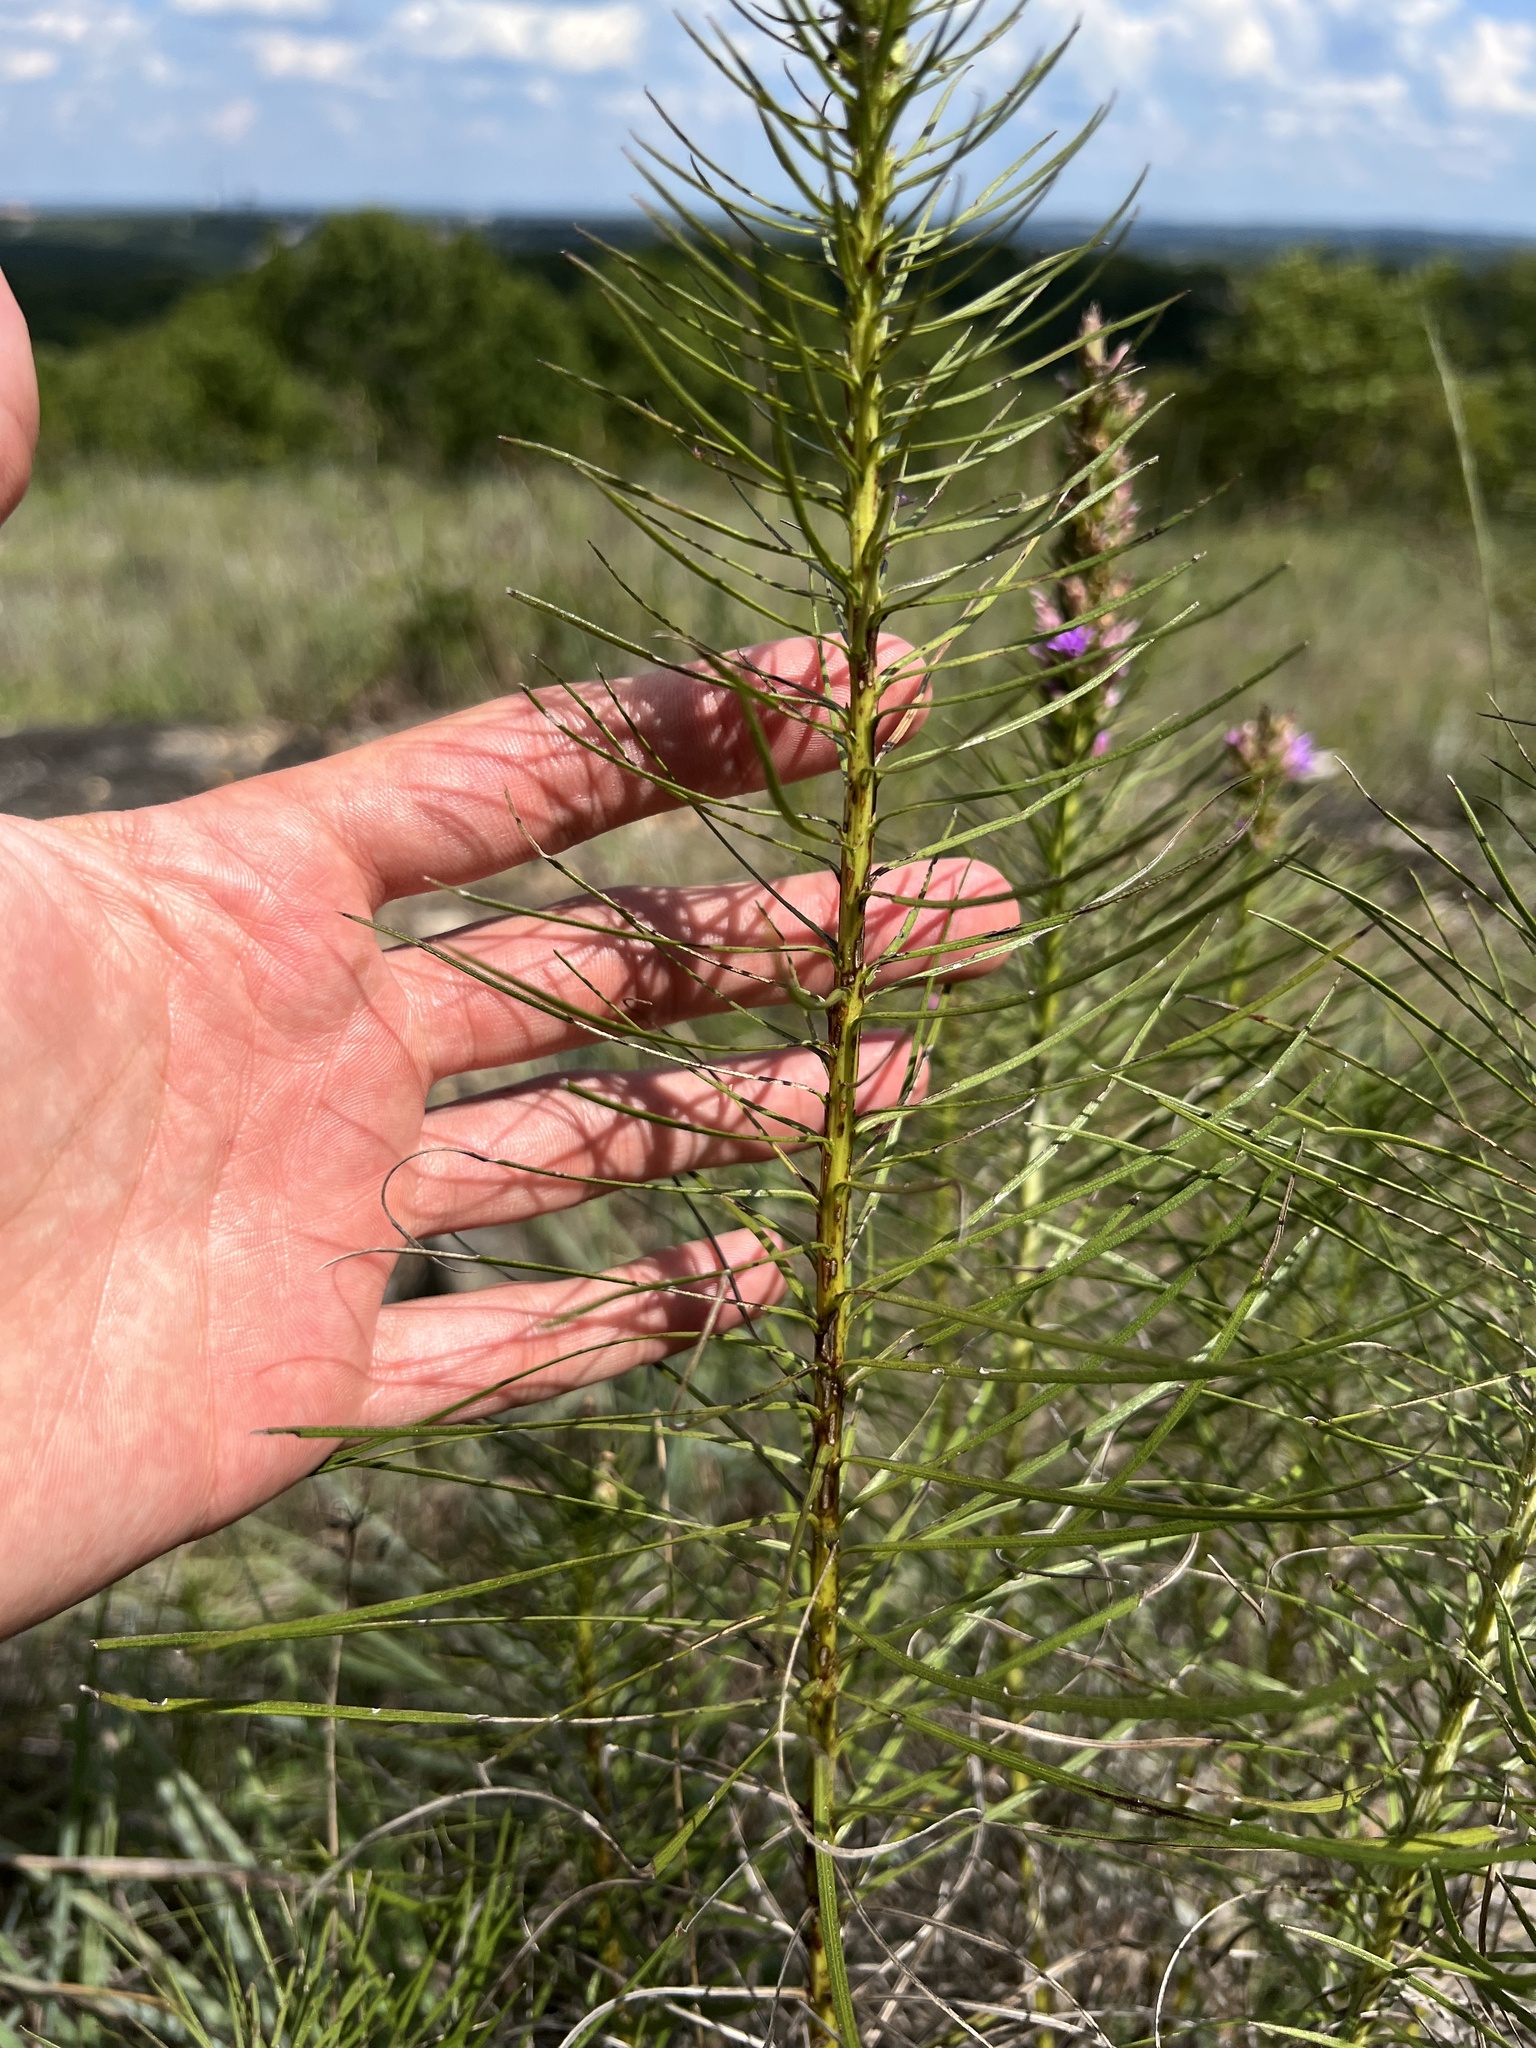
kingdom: Plantae
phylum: Tracheophyta
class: Magnoliopsida
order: Asterales
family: Asteraceae
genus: Liatris
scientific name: Liatris punctata
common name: Dotted gayfeather
